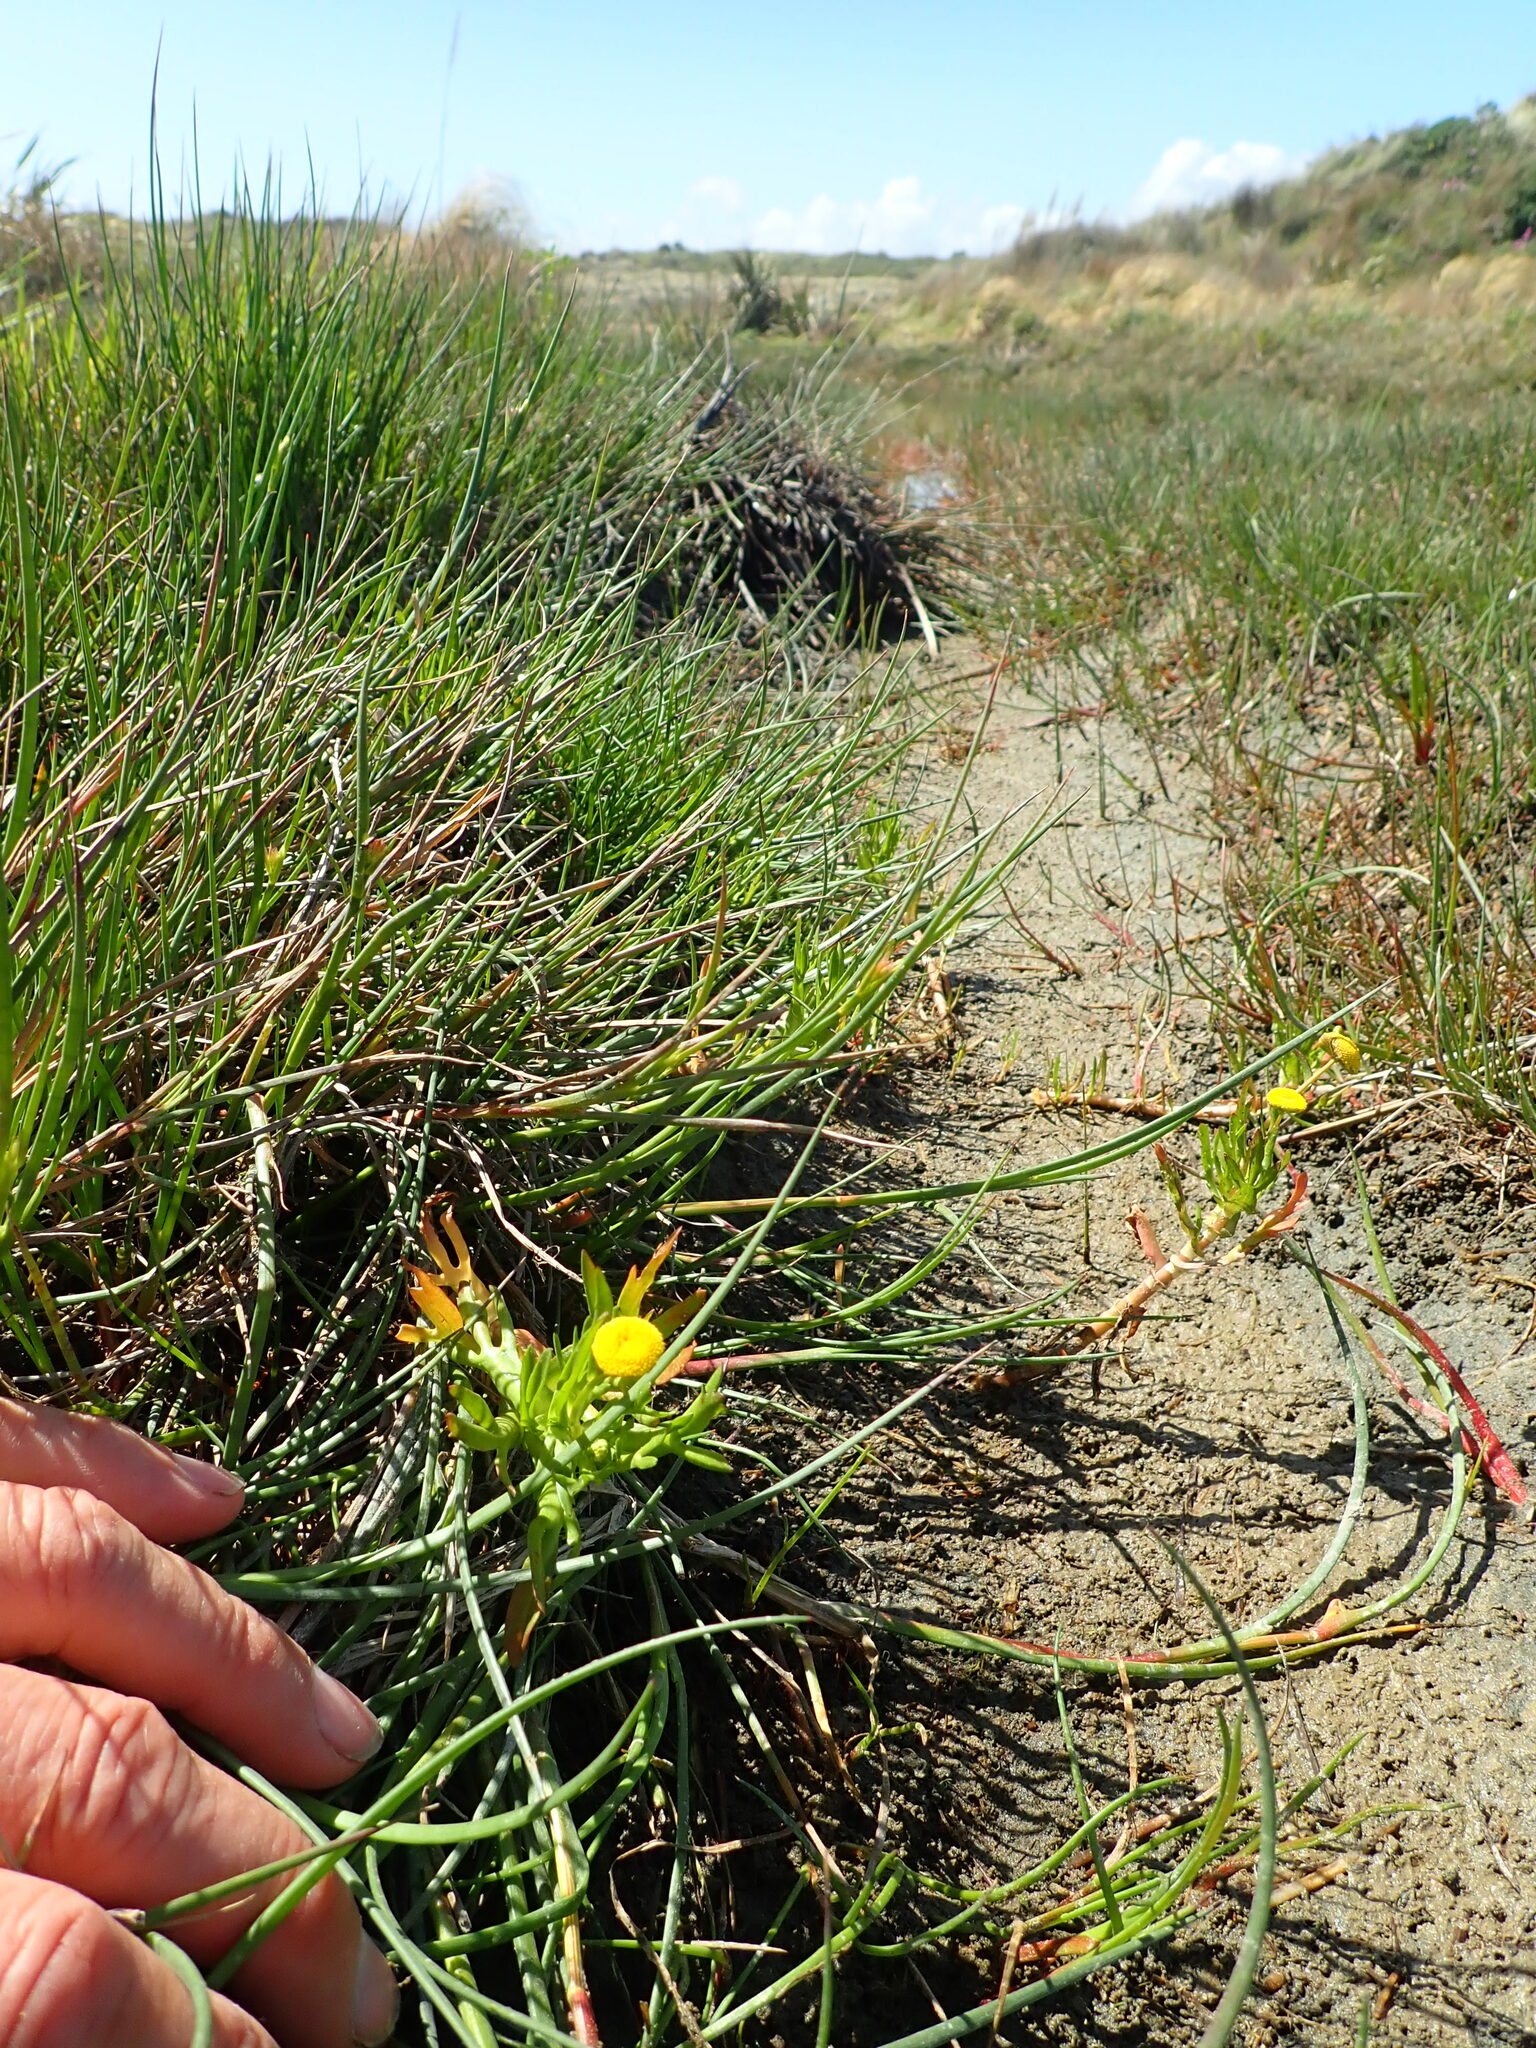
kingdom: Plantae
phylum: Tracheophyta
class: Magnoliopsida
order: Asterales
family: Asteraceae
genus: Cotula
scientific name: Cotula coronopifolia
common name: Buttonweed
